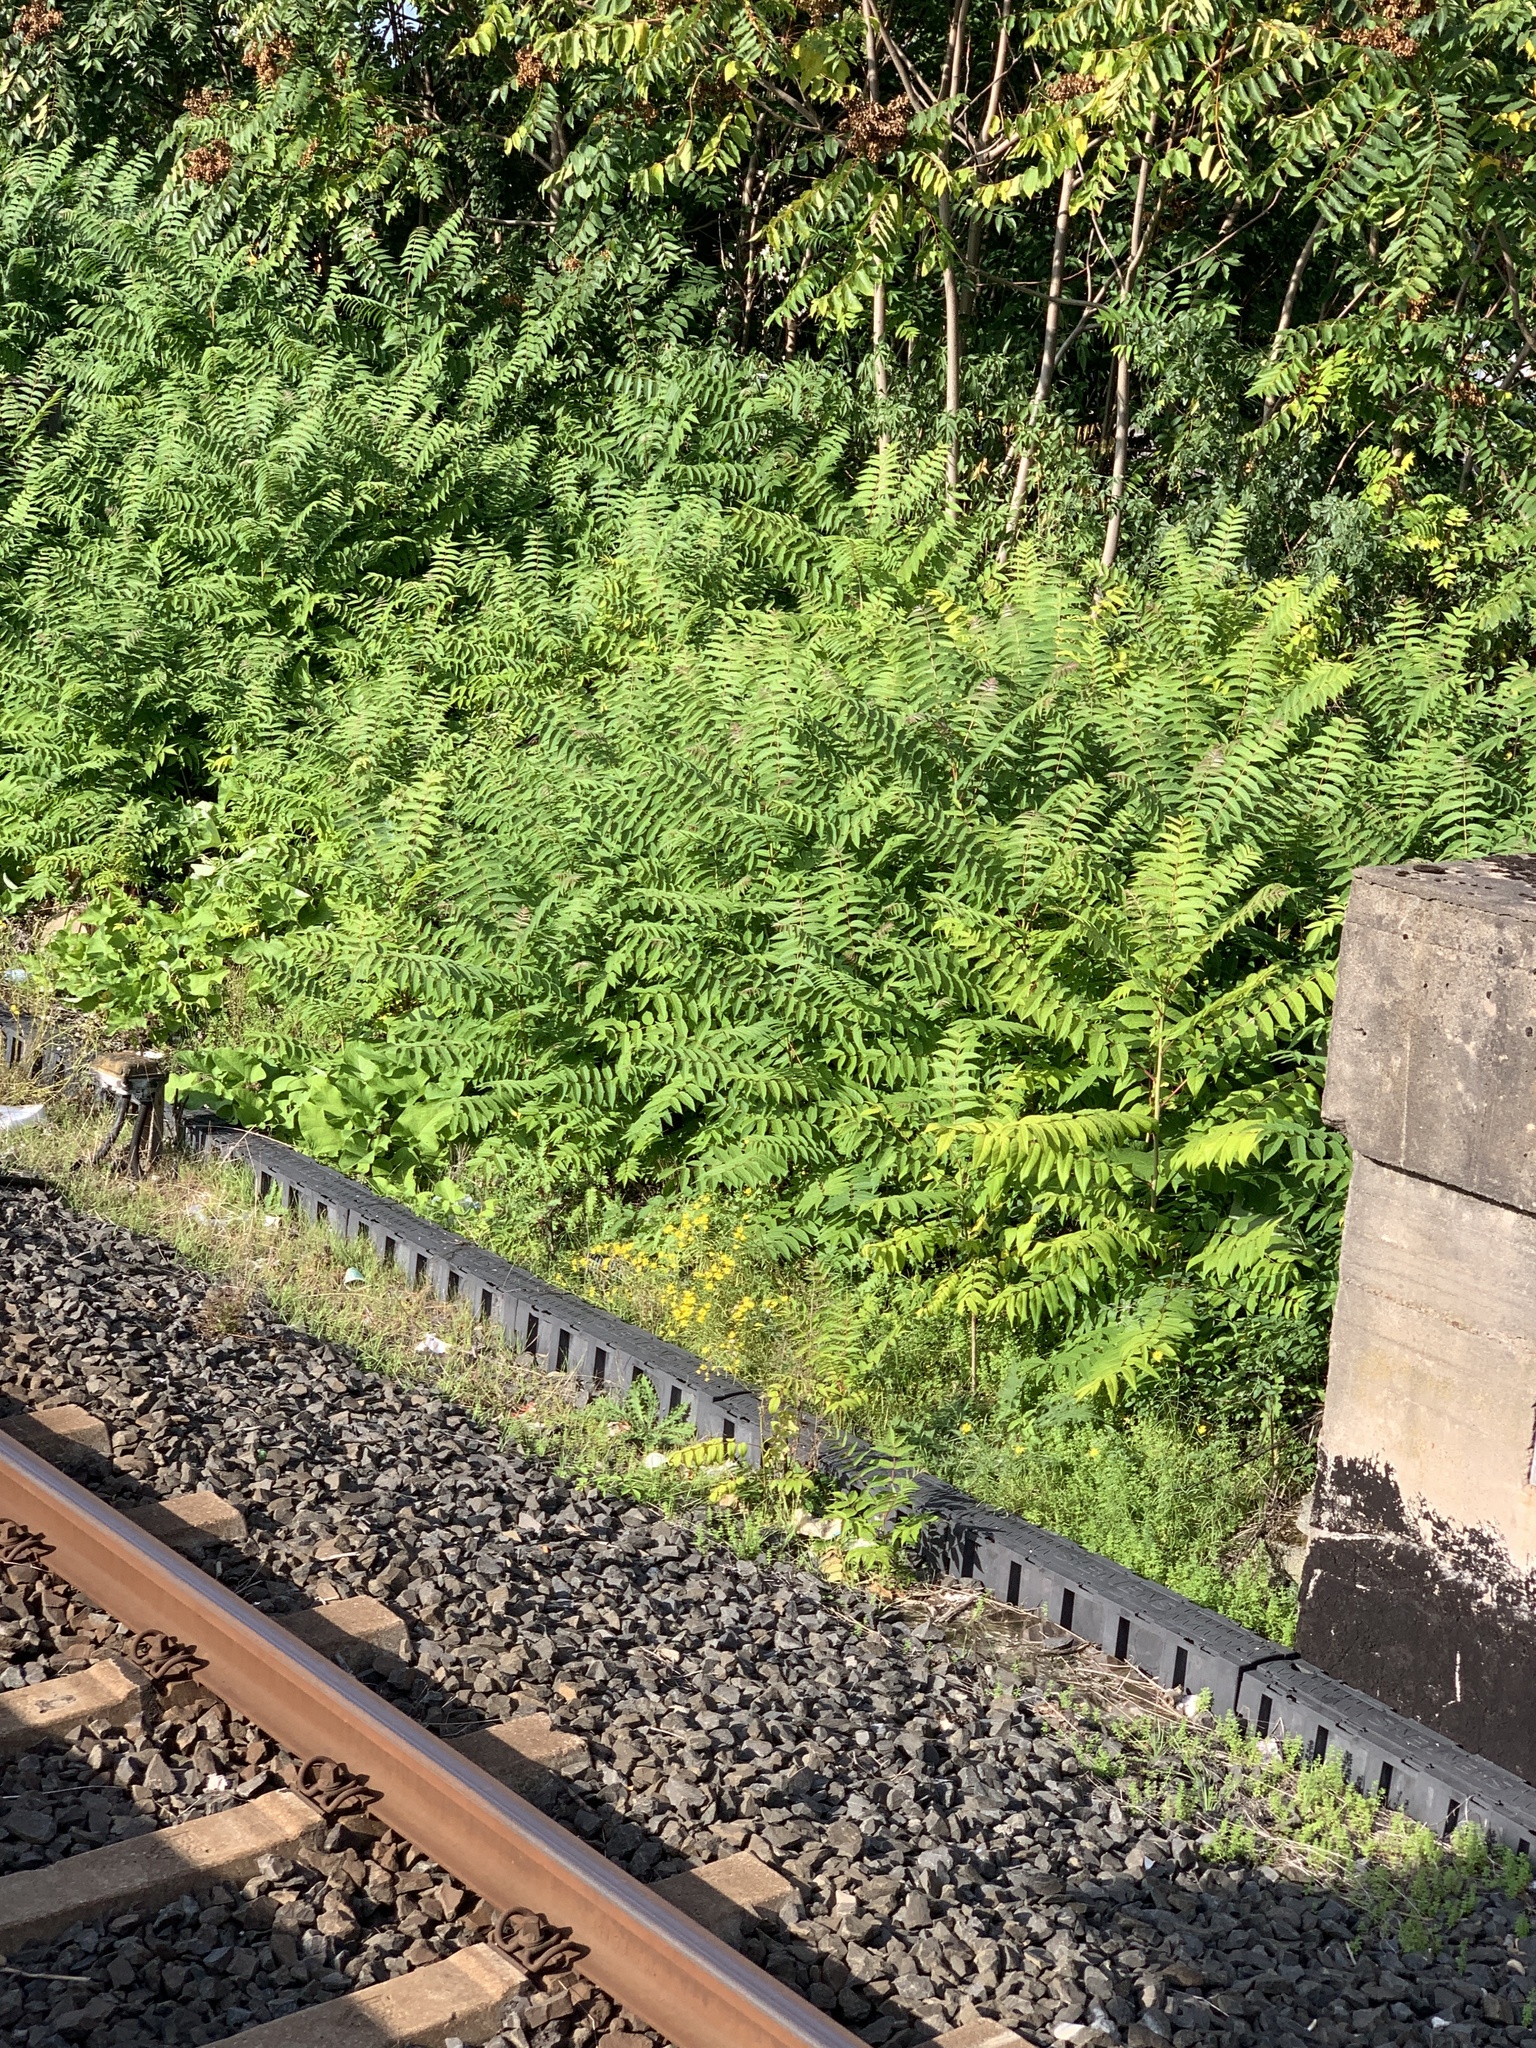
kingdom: Plantae
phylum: Tracheophyta
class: Magnoliopsida
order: Sapindales
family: Simaroubaceae
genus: Ailanthus
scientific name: Ailanthus altissima
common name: Tree-of-heaven
